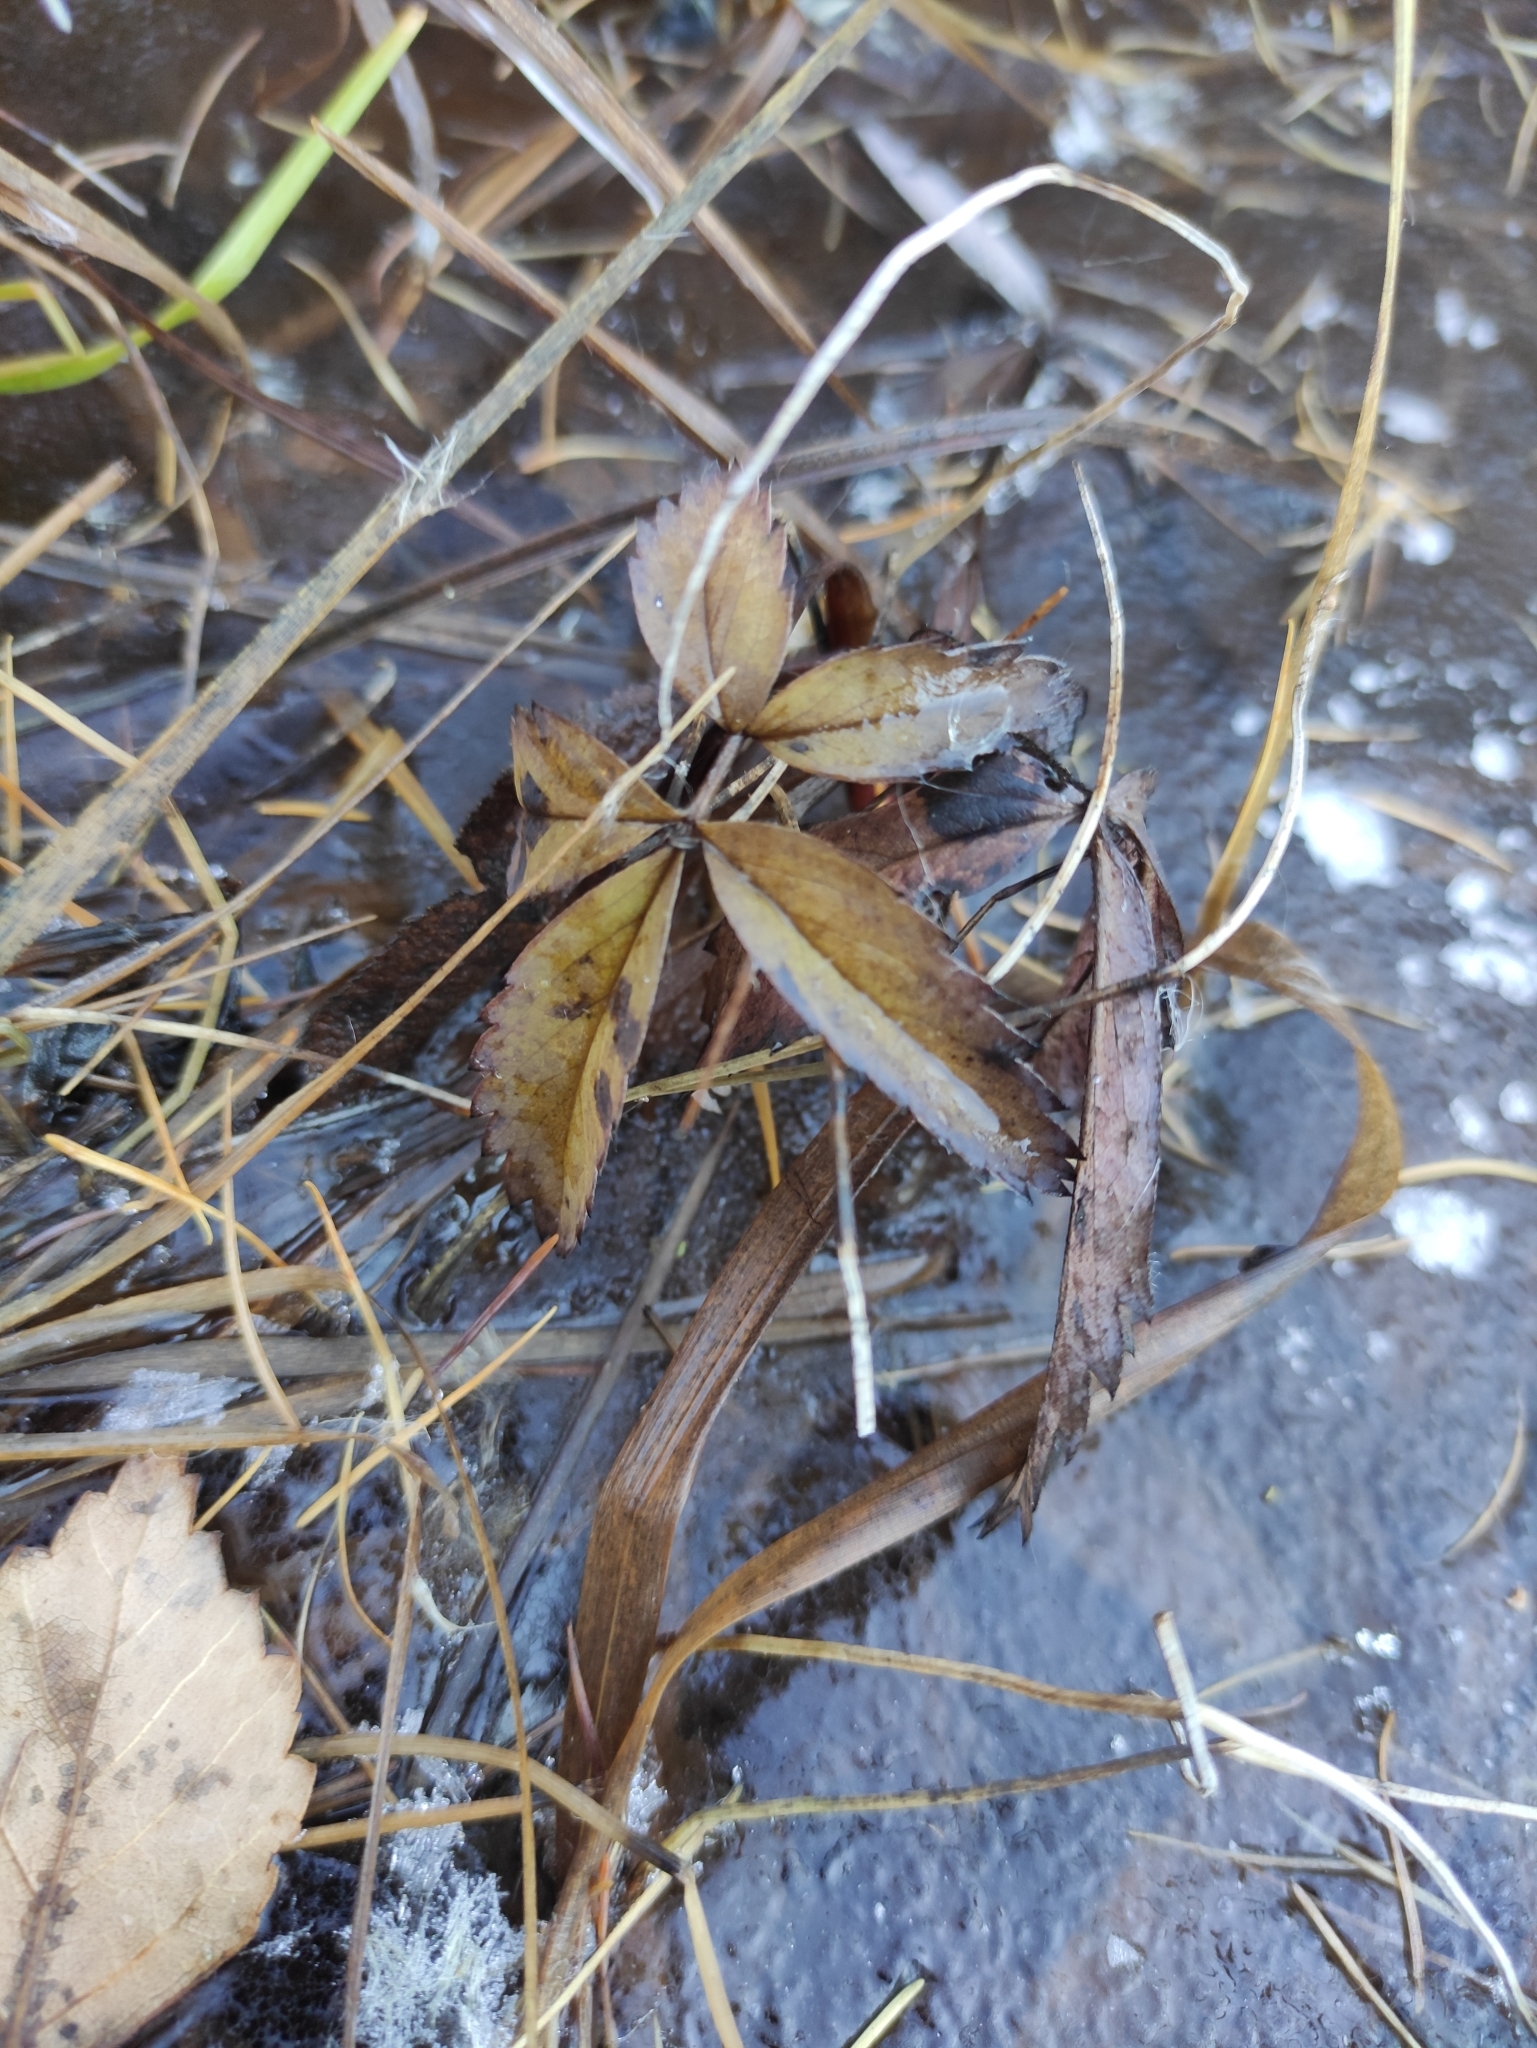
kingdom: Plantae
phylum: Tracheophyta
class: Magnoliopsida
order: Rosales
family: Rosaceae
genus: Comarum
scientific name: Comarum palustre
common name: Marsh cinquefoil
